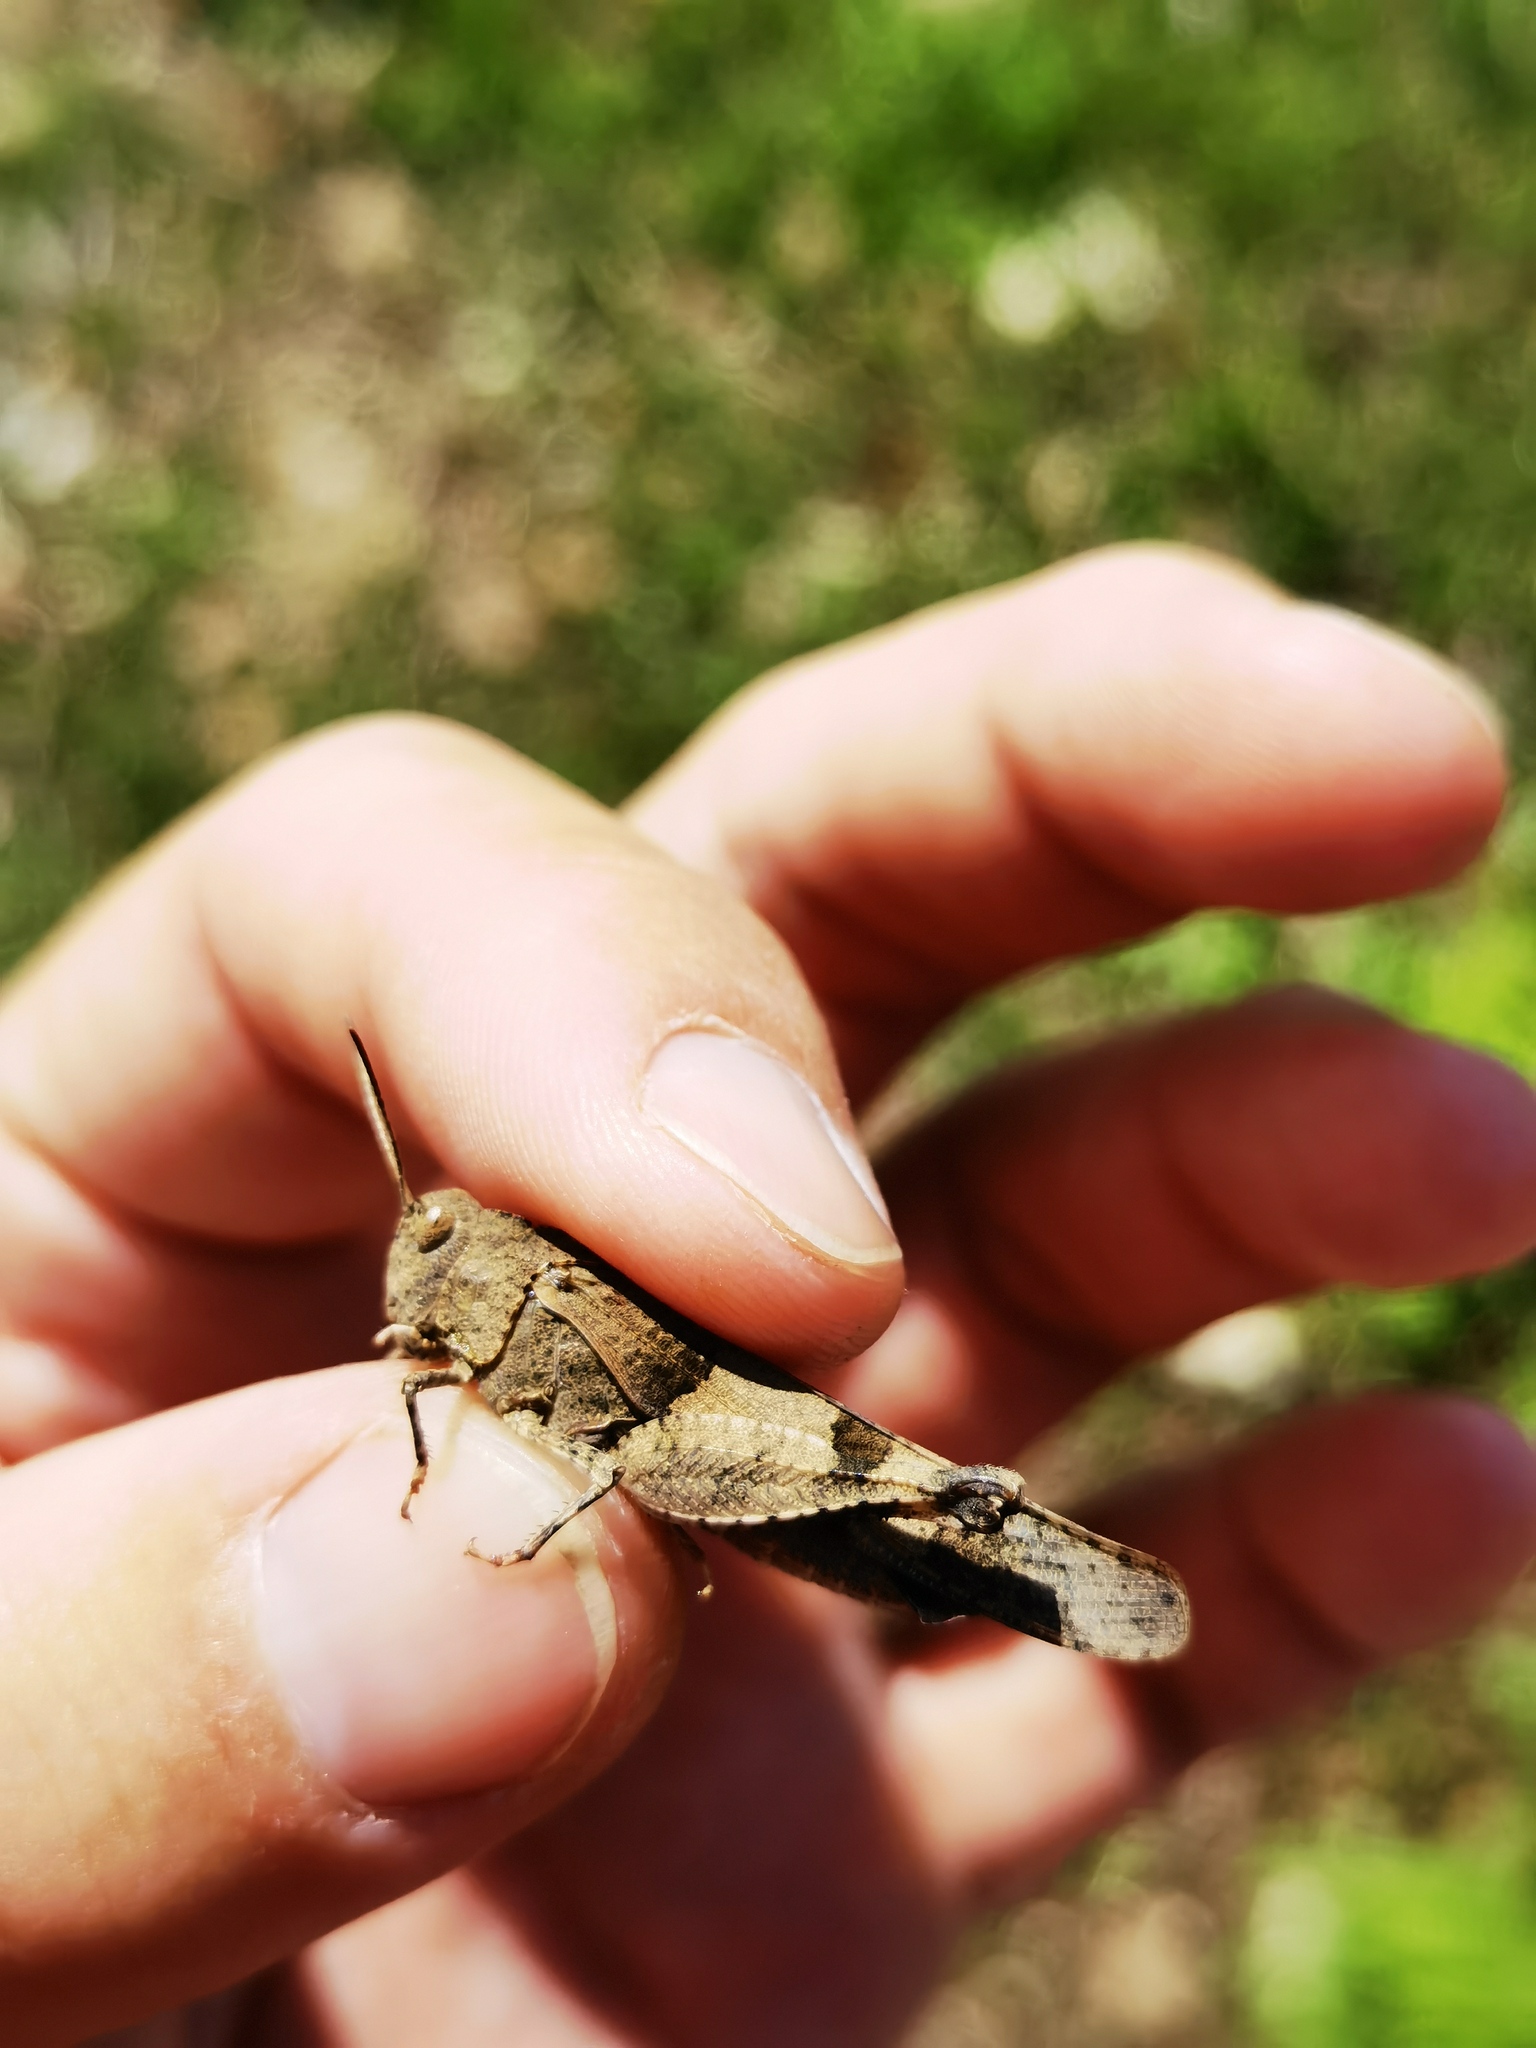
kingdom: Animalia
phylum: Arthropoda
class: Insecta
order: Orthoptera
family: Acrididae
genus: Oedipoda
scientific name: Oedipoda caerulescens
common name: Blue-winged grasshopper
